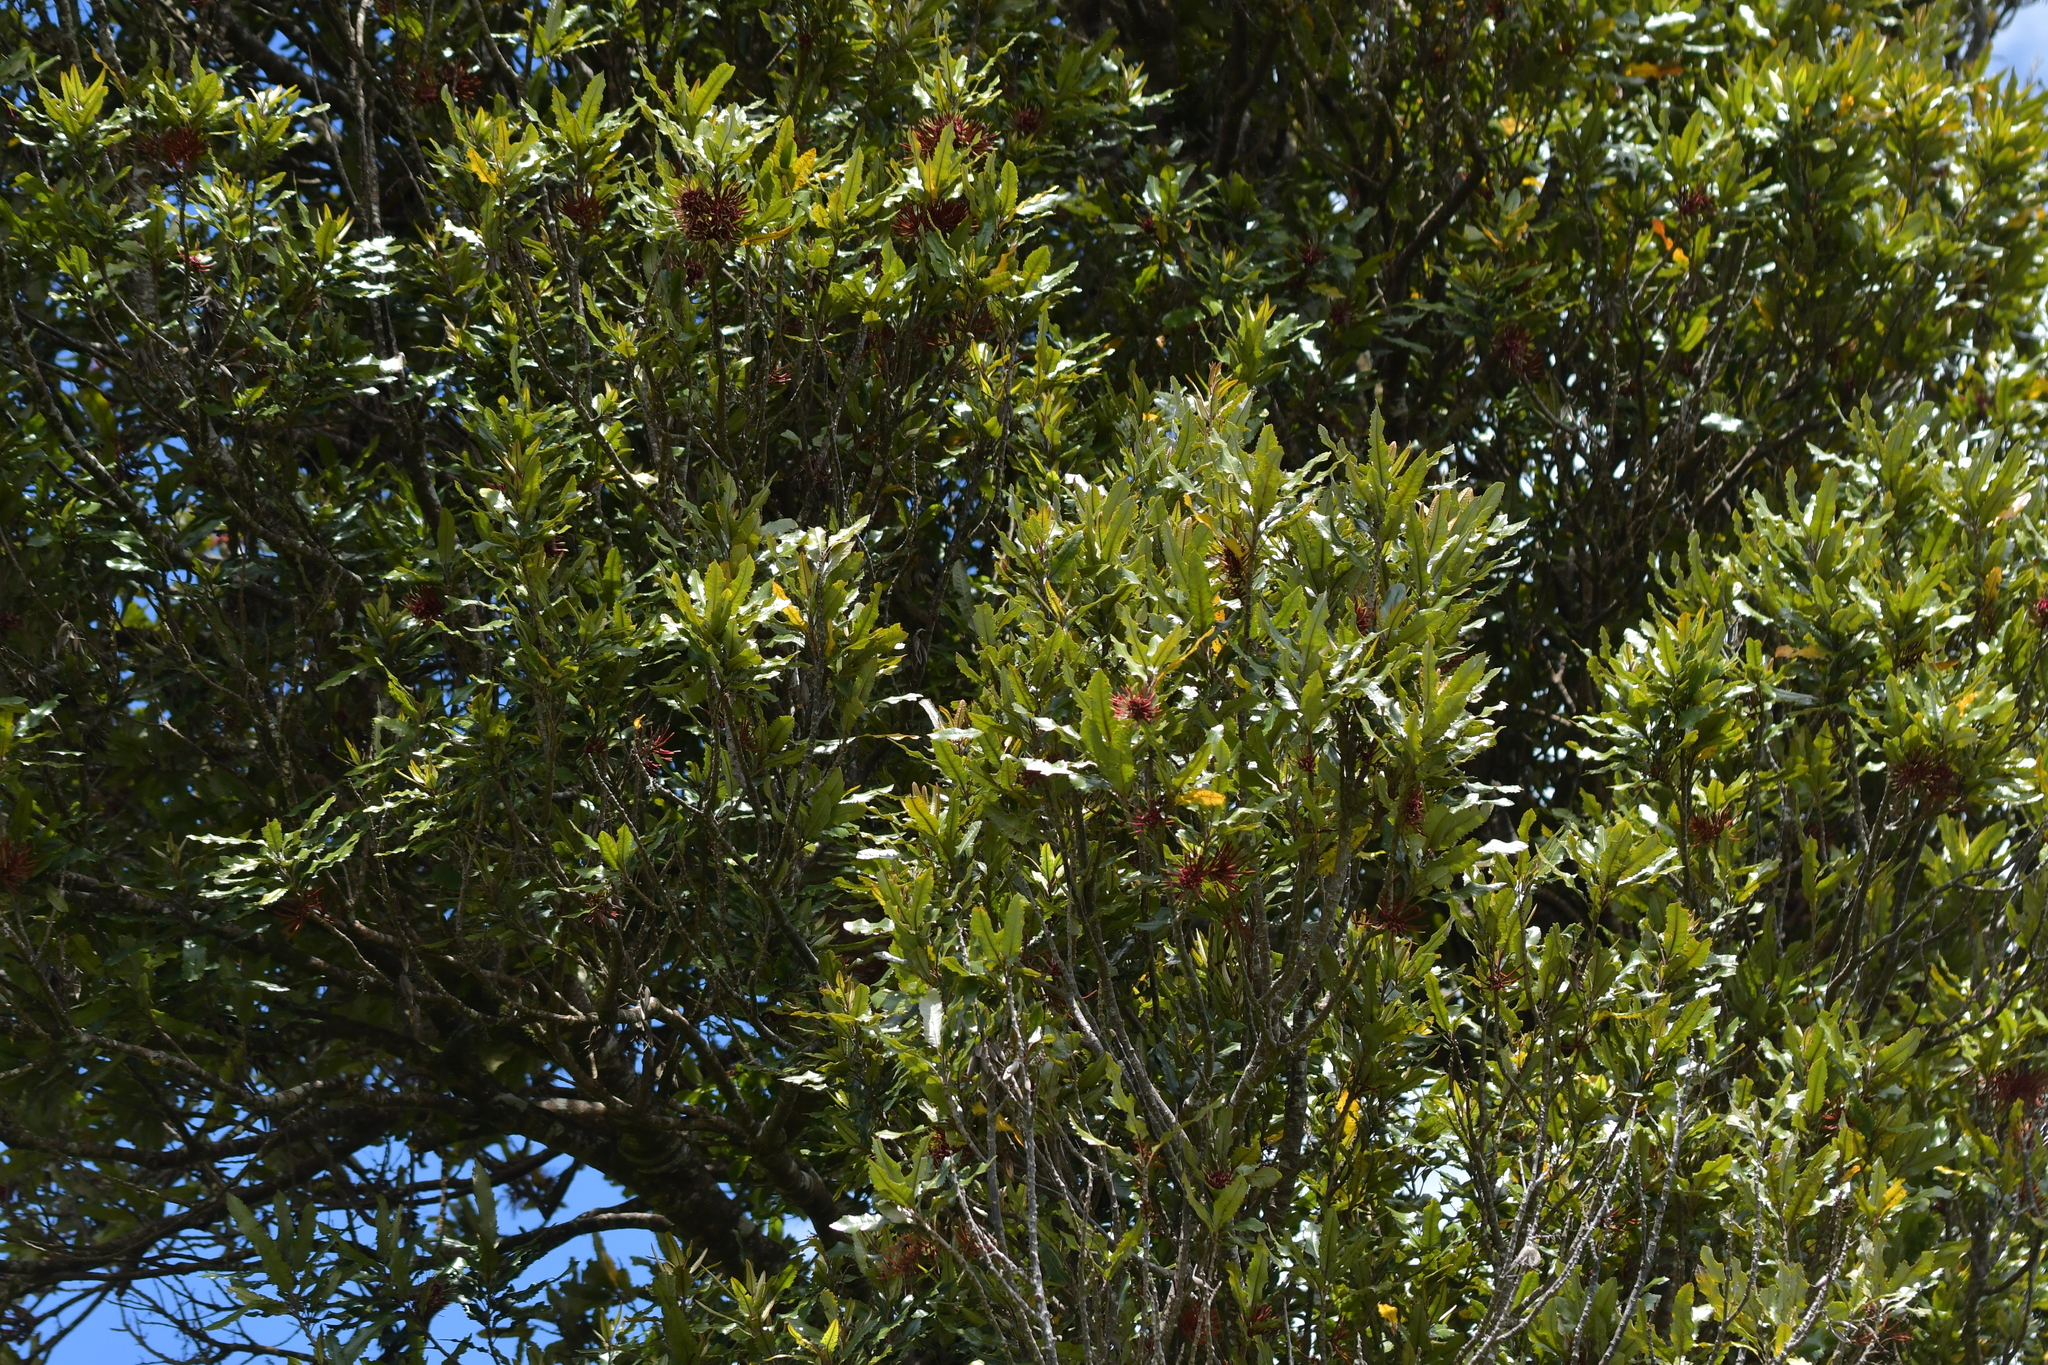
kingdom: Plantae
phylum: Tracheophyta
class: Magnoliopsida
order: Proteales
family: Proteaceae
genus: Knightia
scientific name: Knightia excelsa
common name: New zealand-honeysuckle
